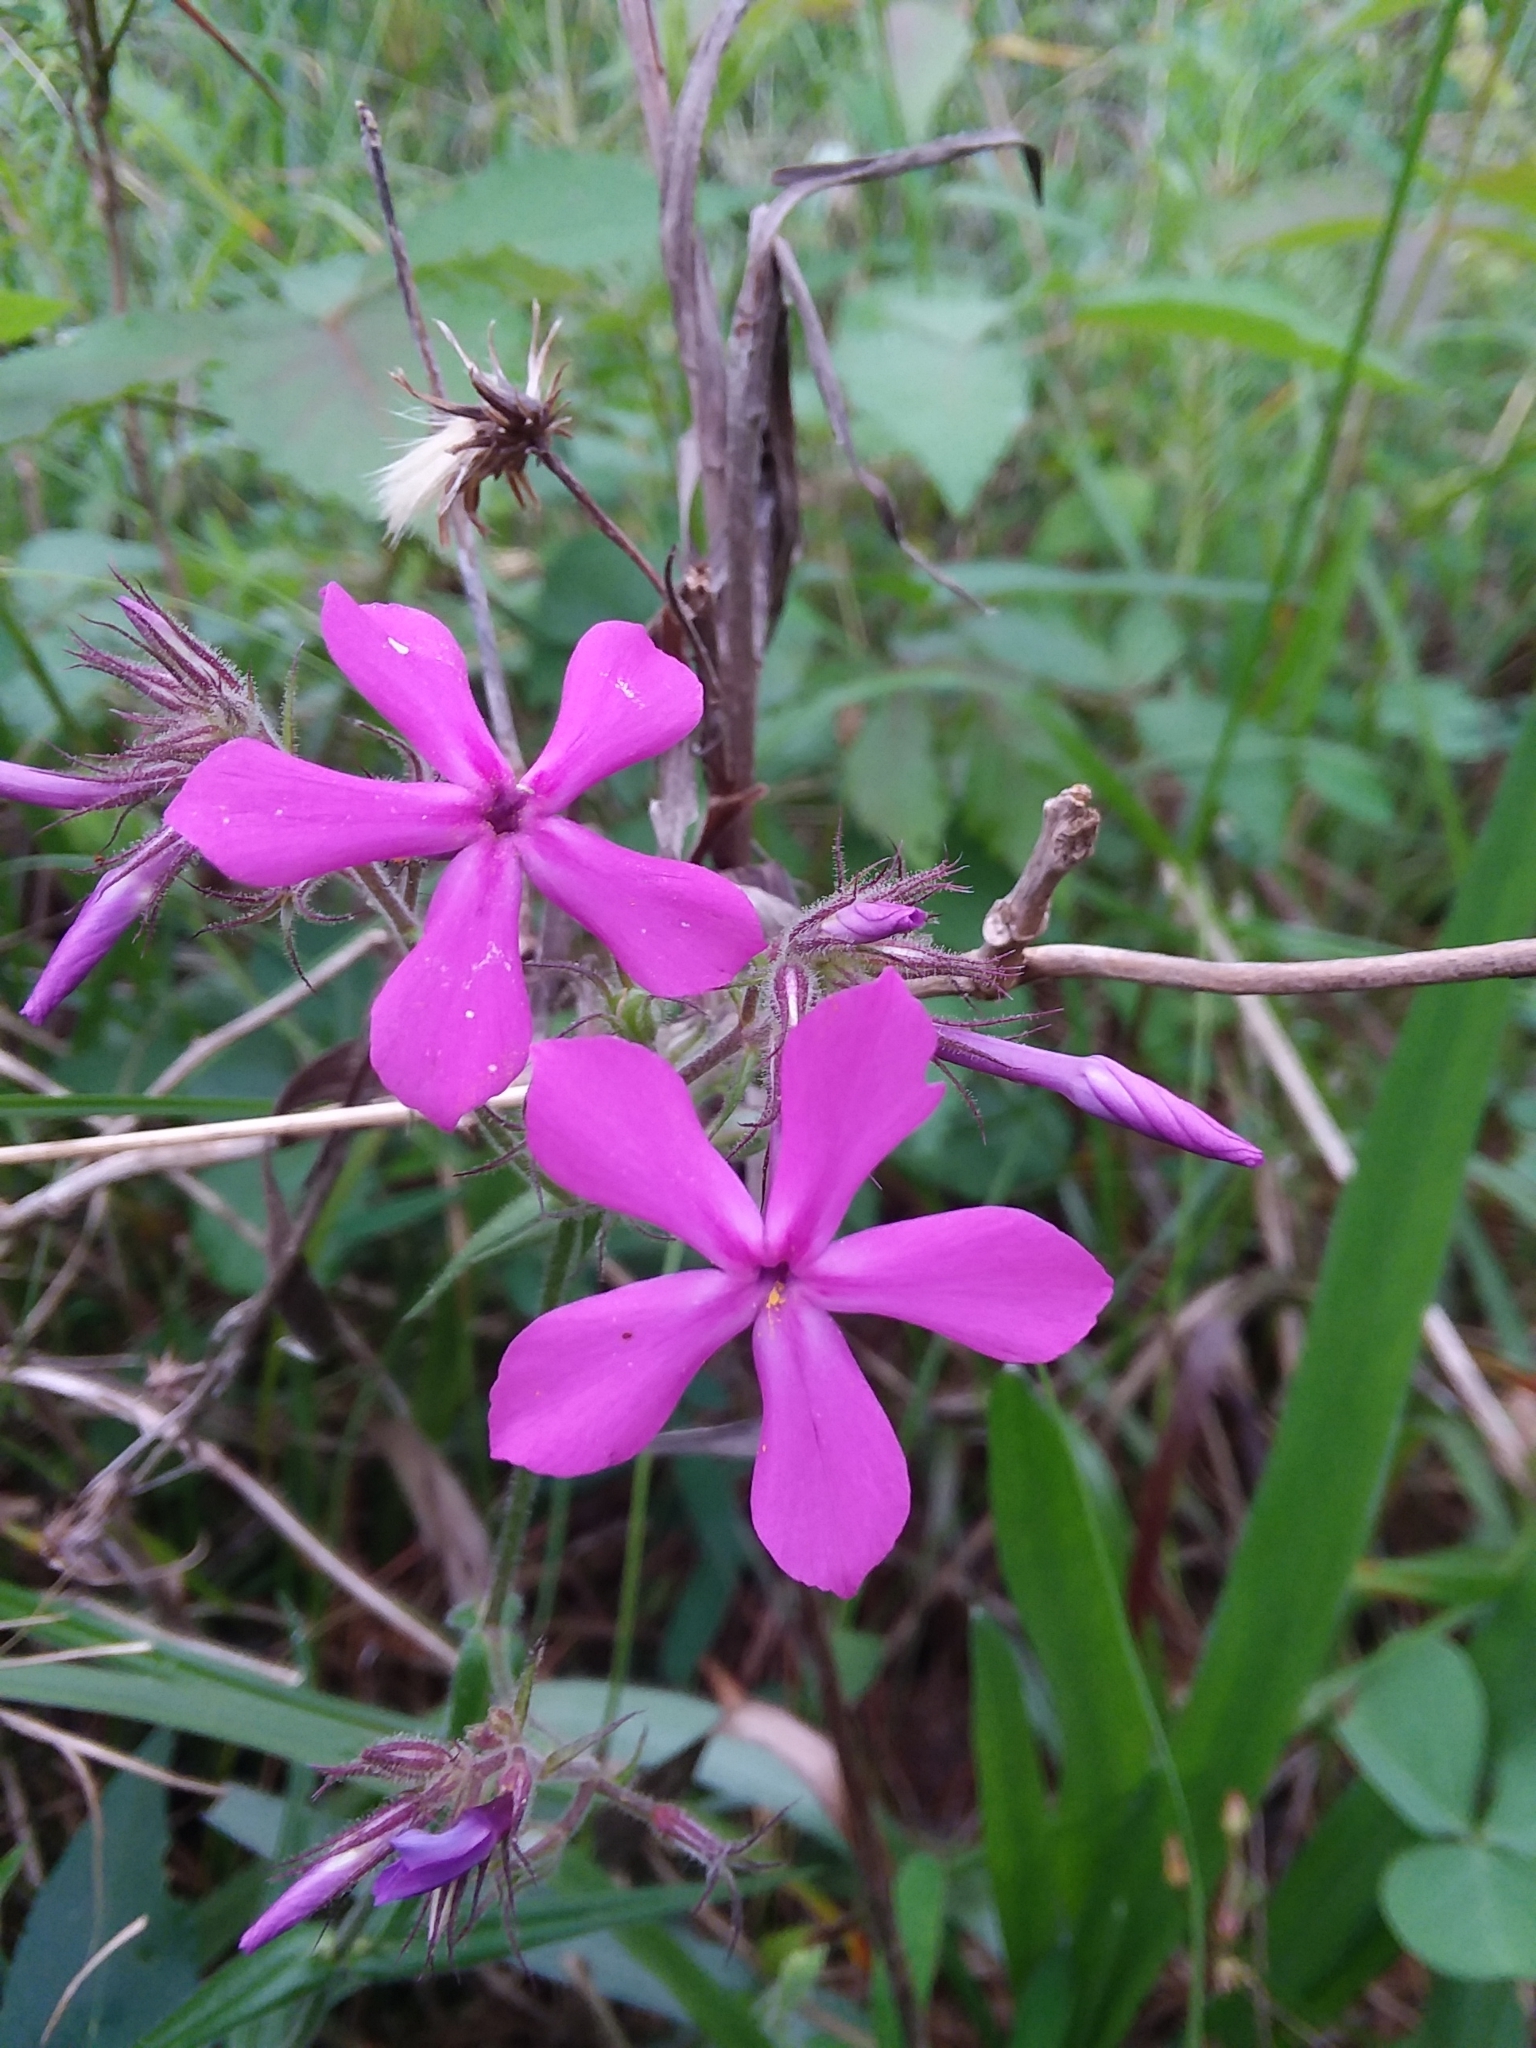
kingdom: Plantae
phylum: Tracheophyta
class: Magnoliopsida
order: Ericales
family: Polemoniaceae
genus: Phlox
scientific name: Phlox pilosa
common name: Prairie phlox
